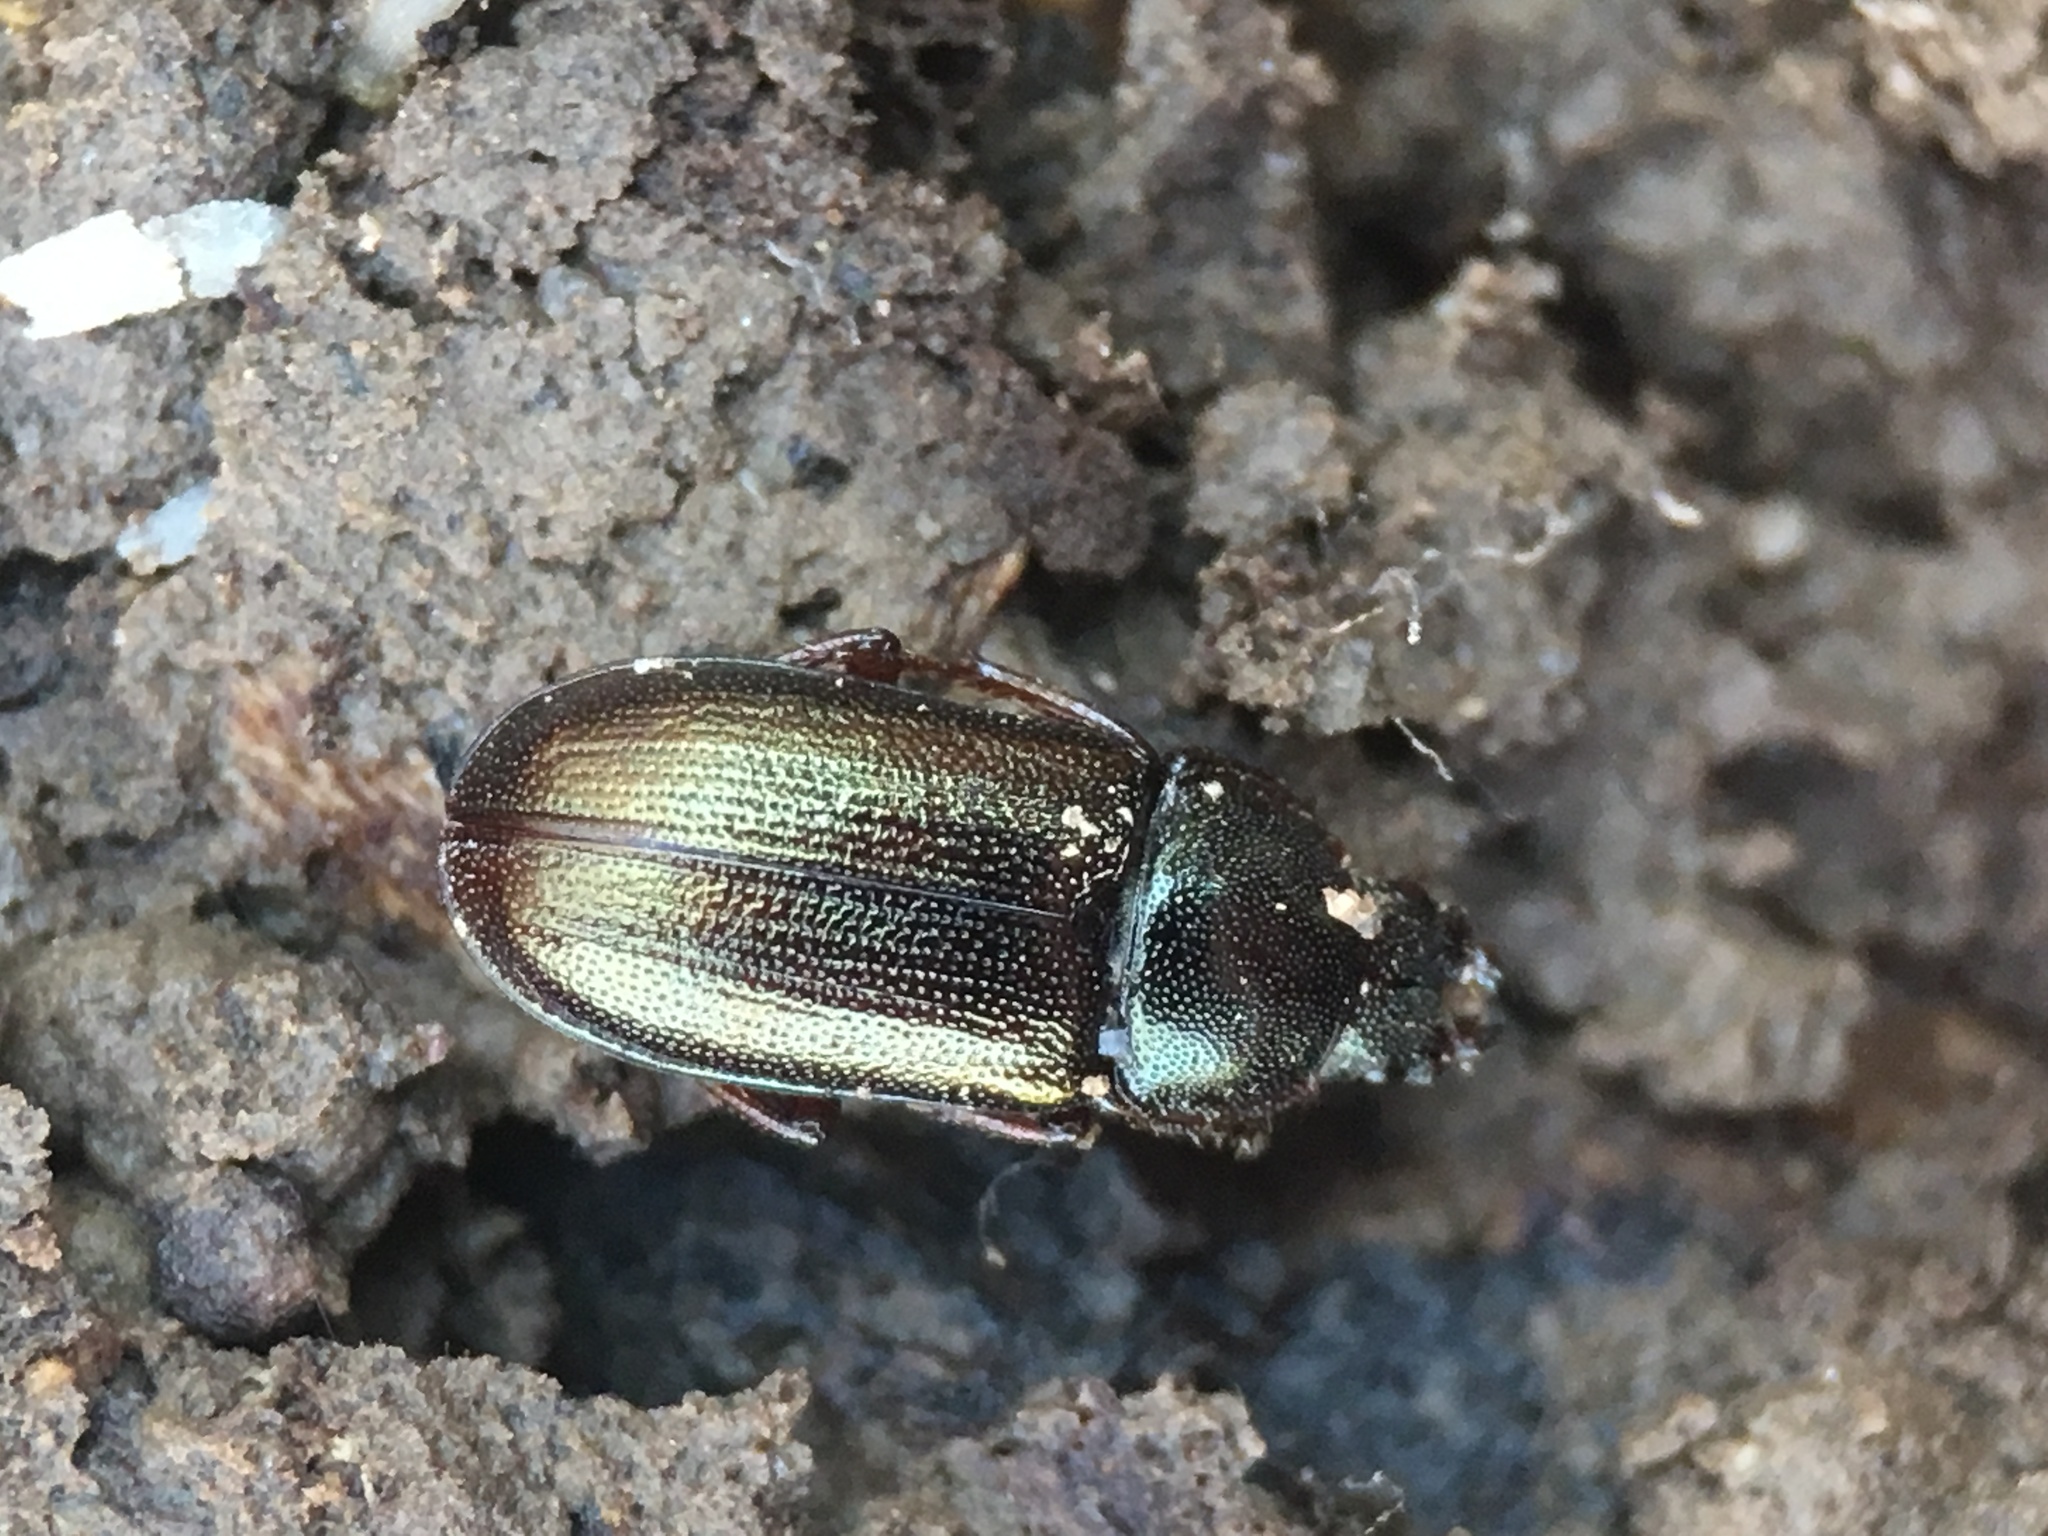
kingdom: Animalia
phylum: Arthropoda
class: Insecta
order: Coleoptera
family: Lucanidae
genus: Platycerus
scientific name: Platycerus quercus
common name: Oak stag beetle
